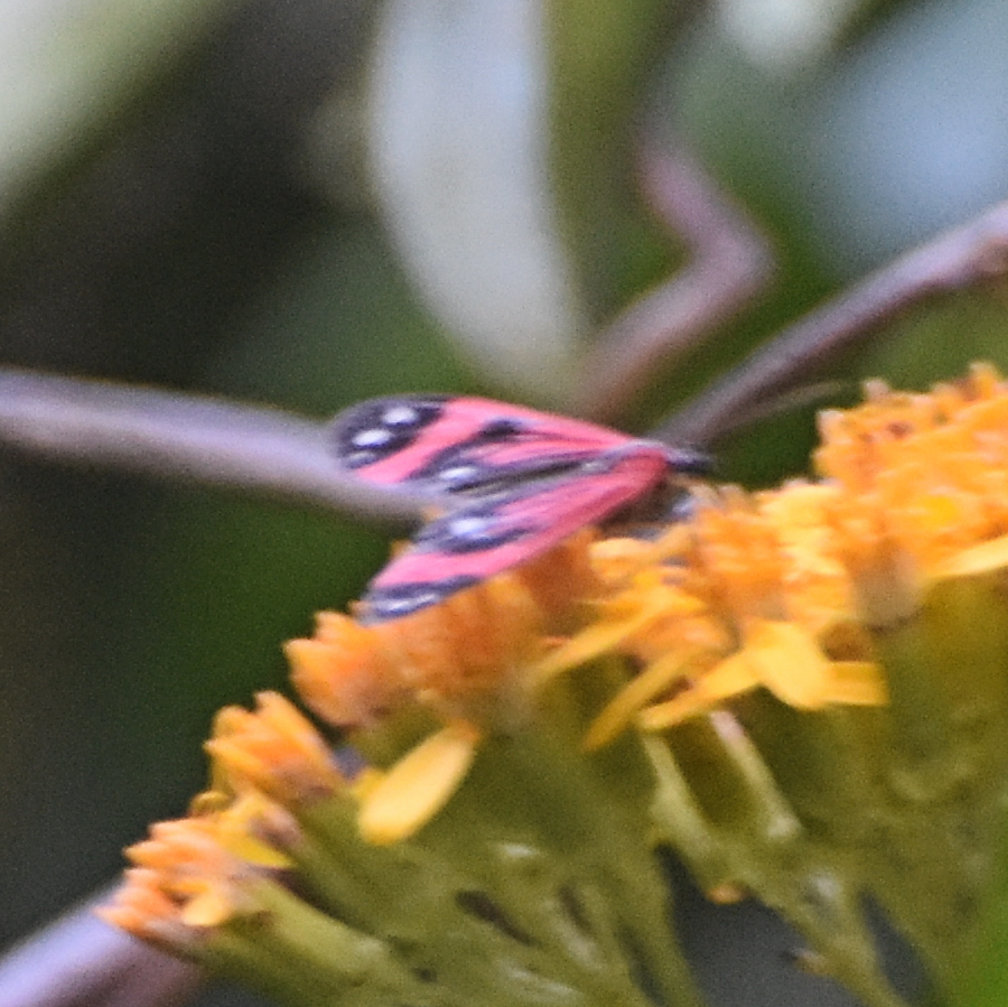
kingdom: Animalia
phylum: Arthropoda
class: Insecta
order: Lepidoptera
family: Erebidae
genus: Syntomidopsis
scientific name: Syntomidopsis variegata
